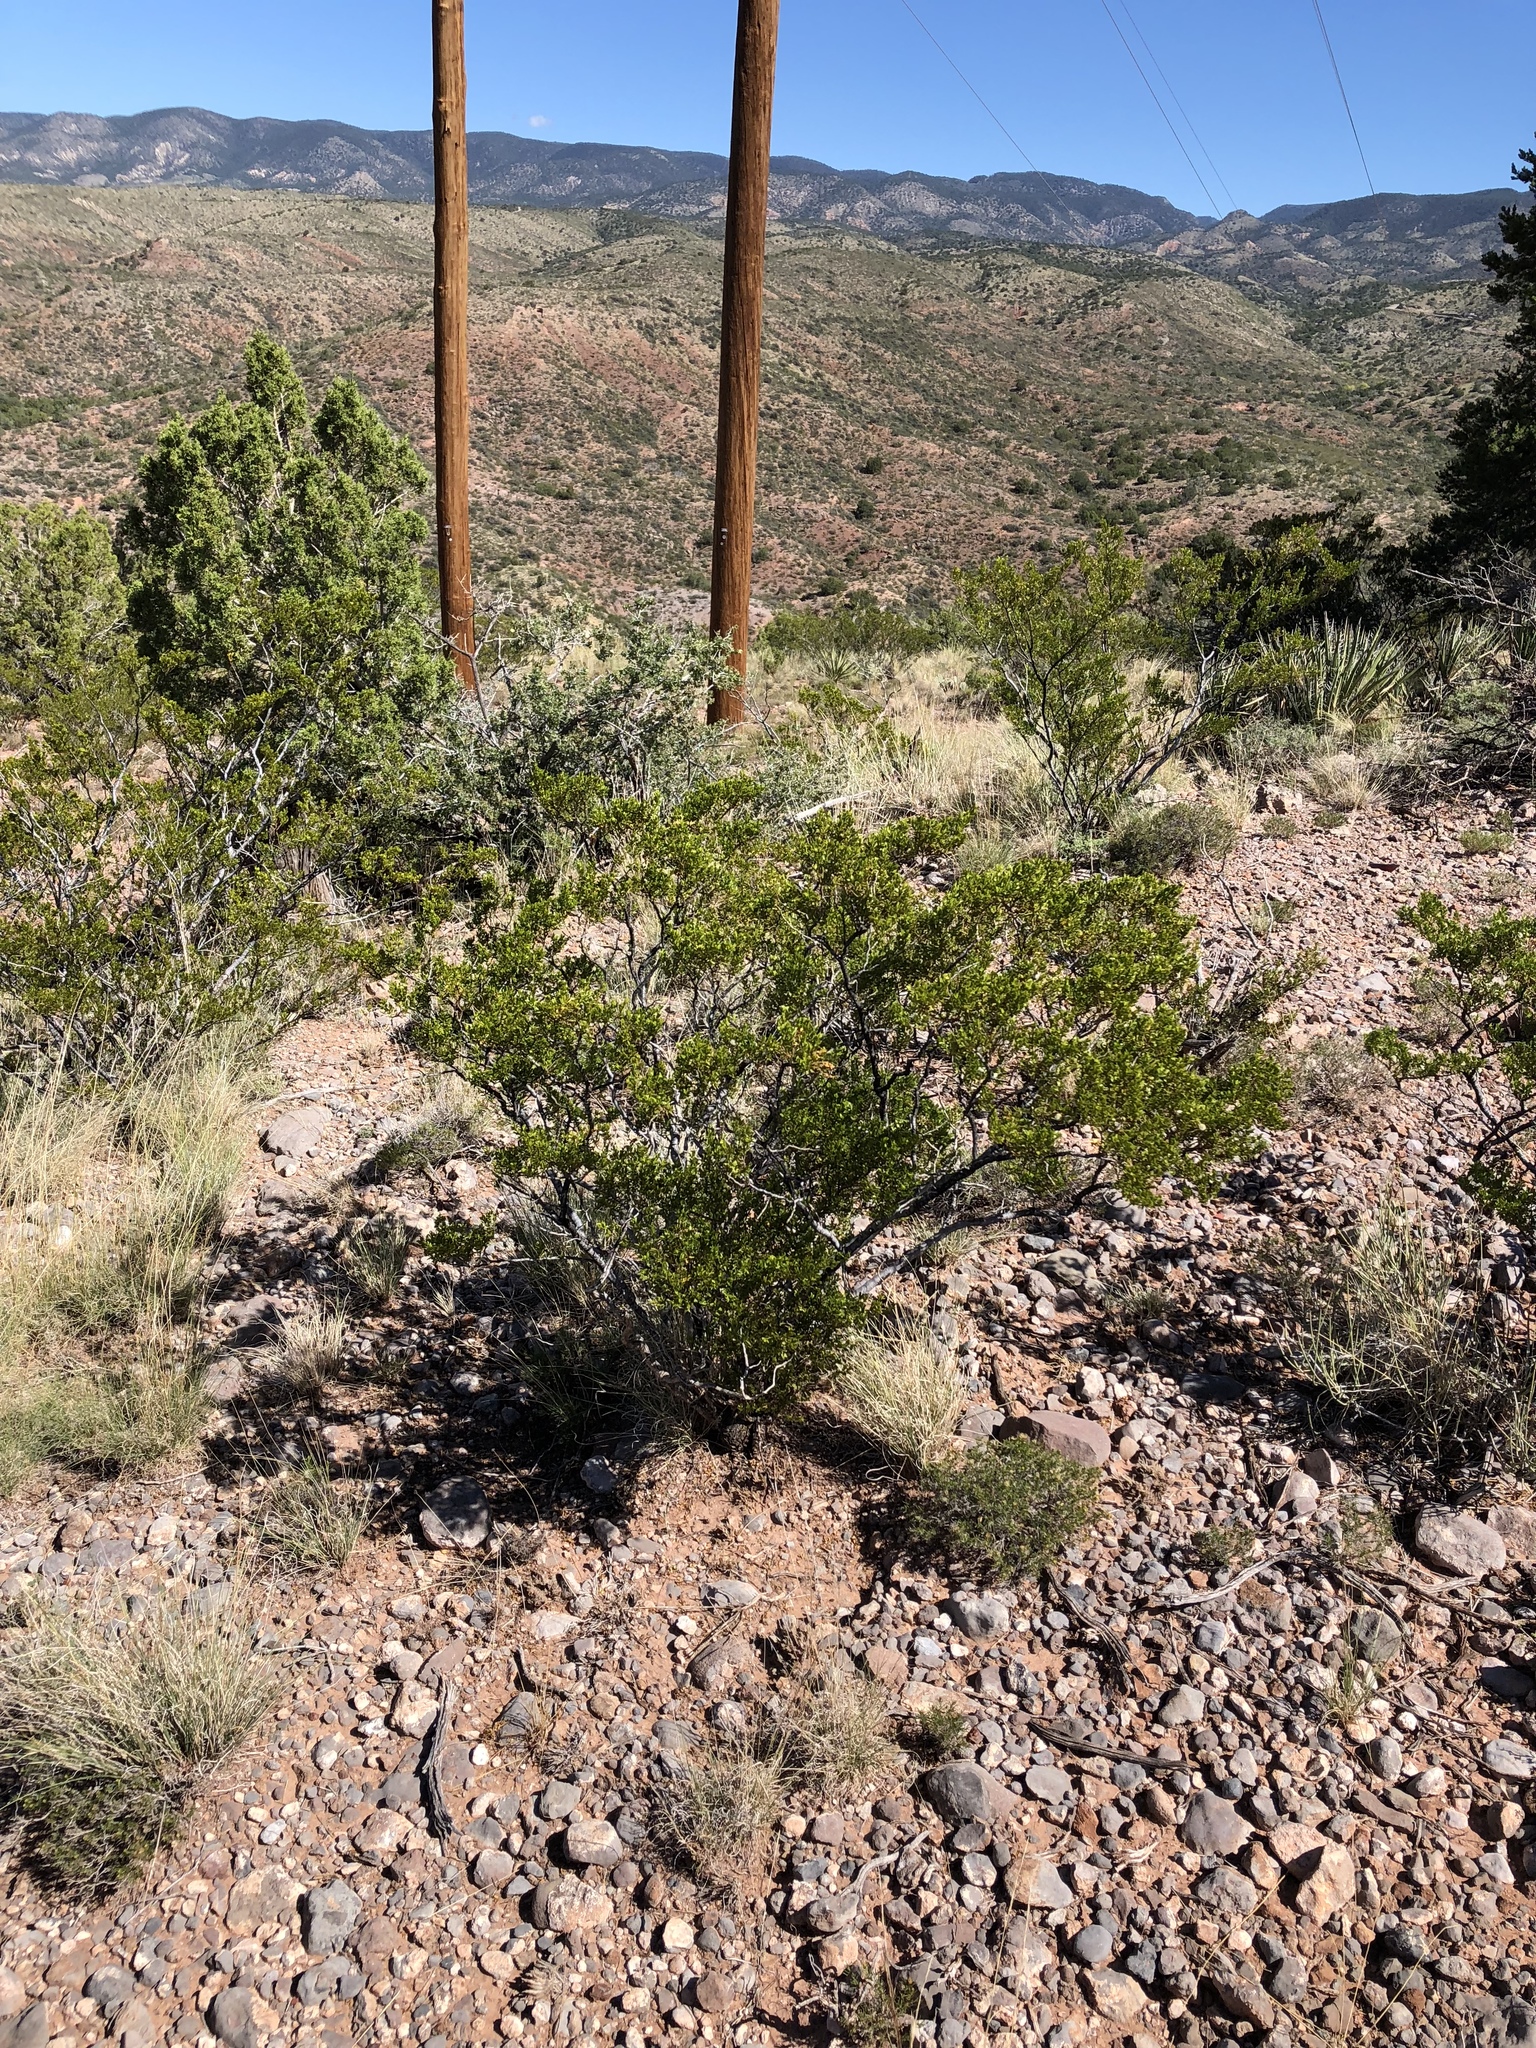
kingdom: Plantae
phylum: Tracheophyta
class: Magnoliopsida
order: Zygophyllales
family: Zygophyllaceae
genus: Larrea
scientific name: Larrea tridentata
